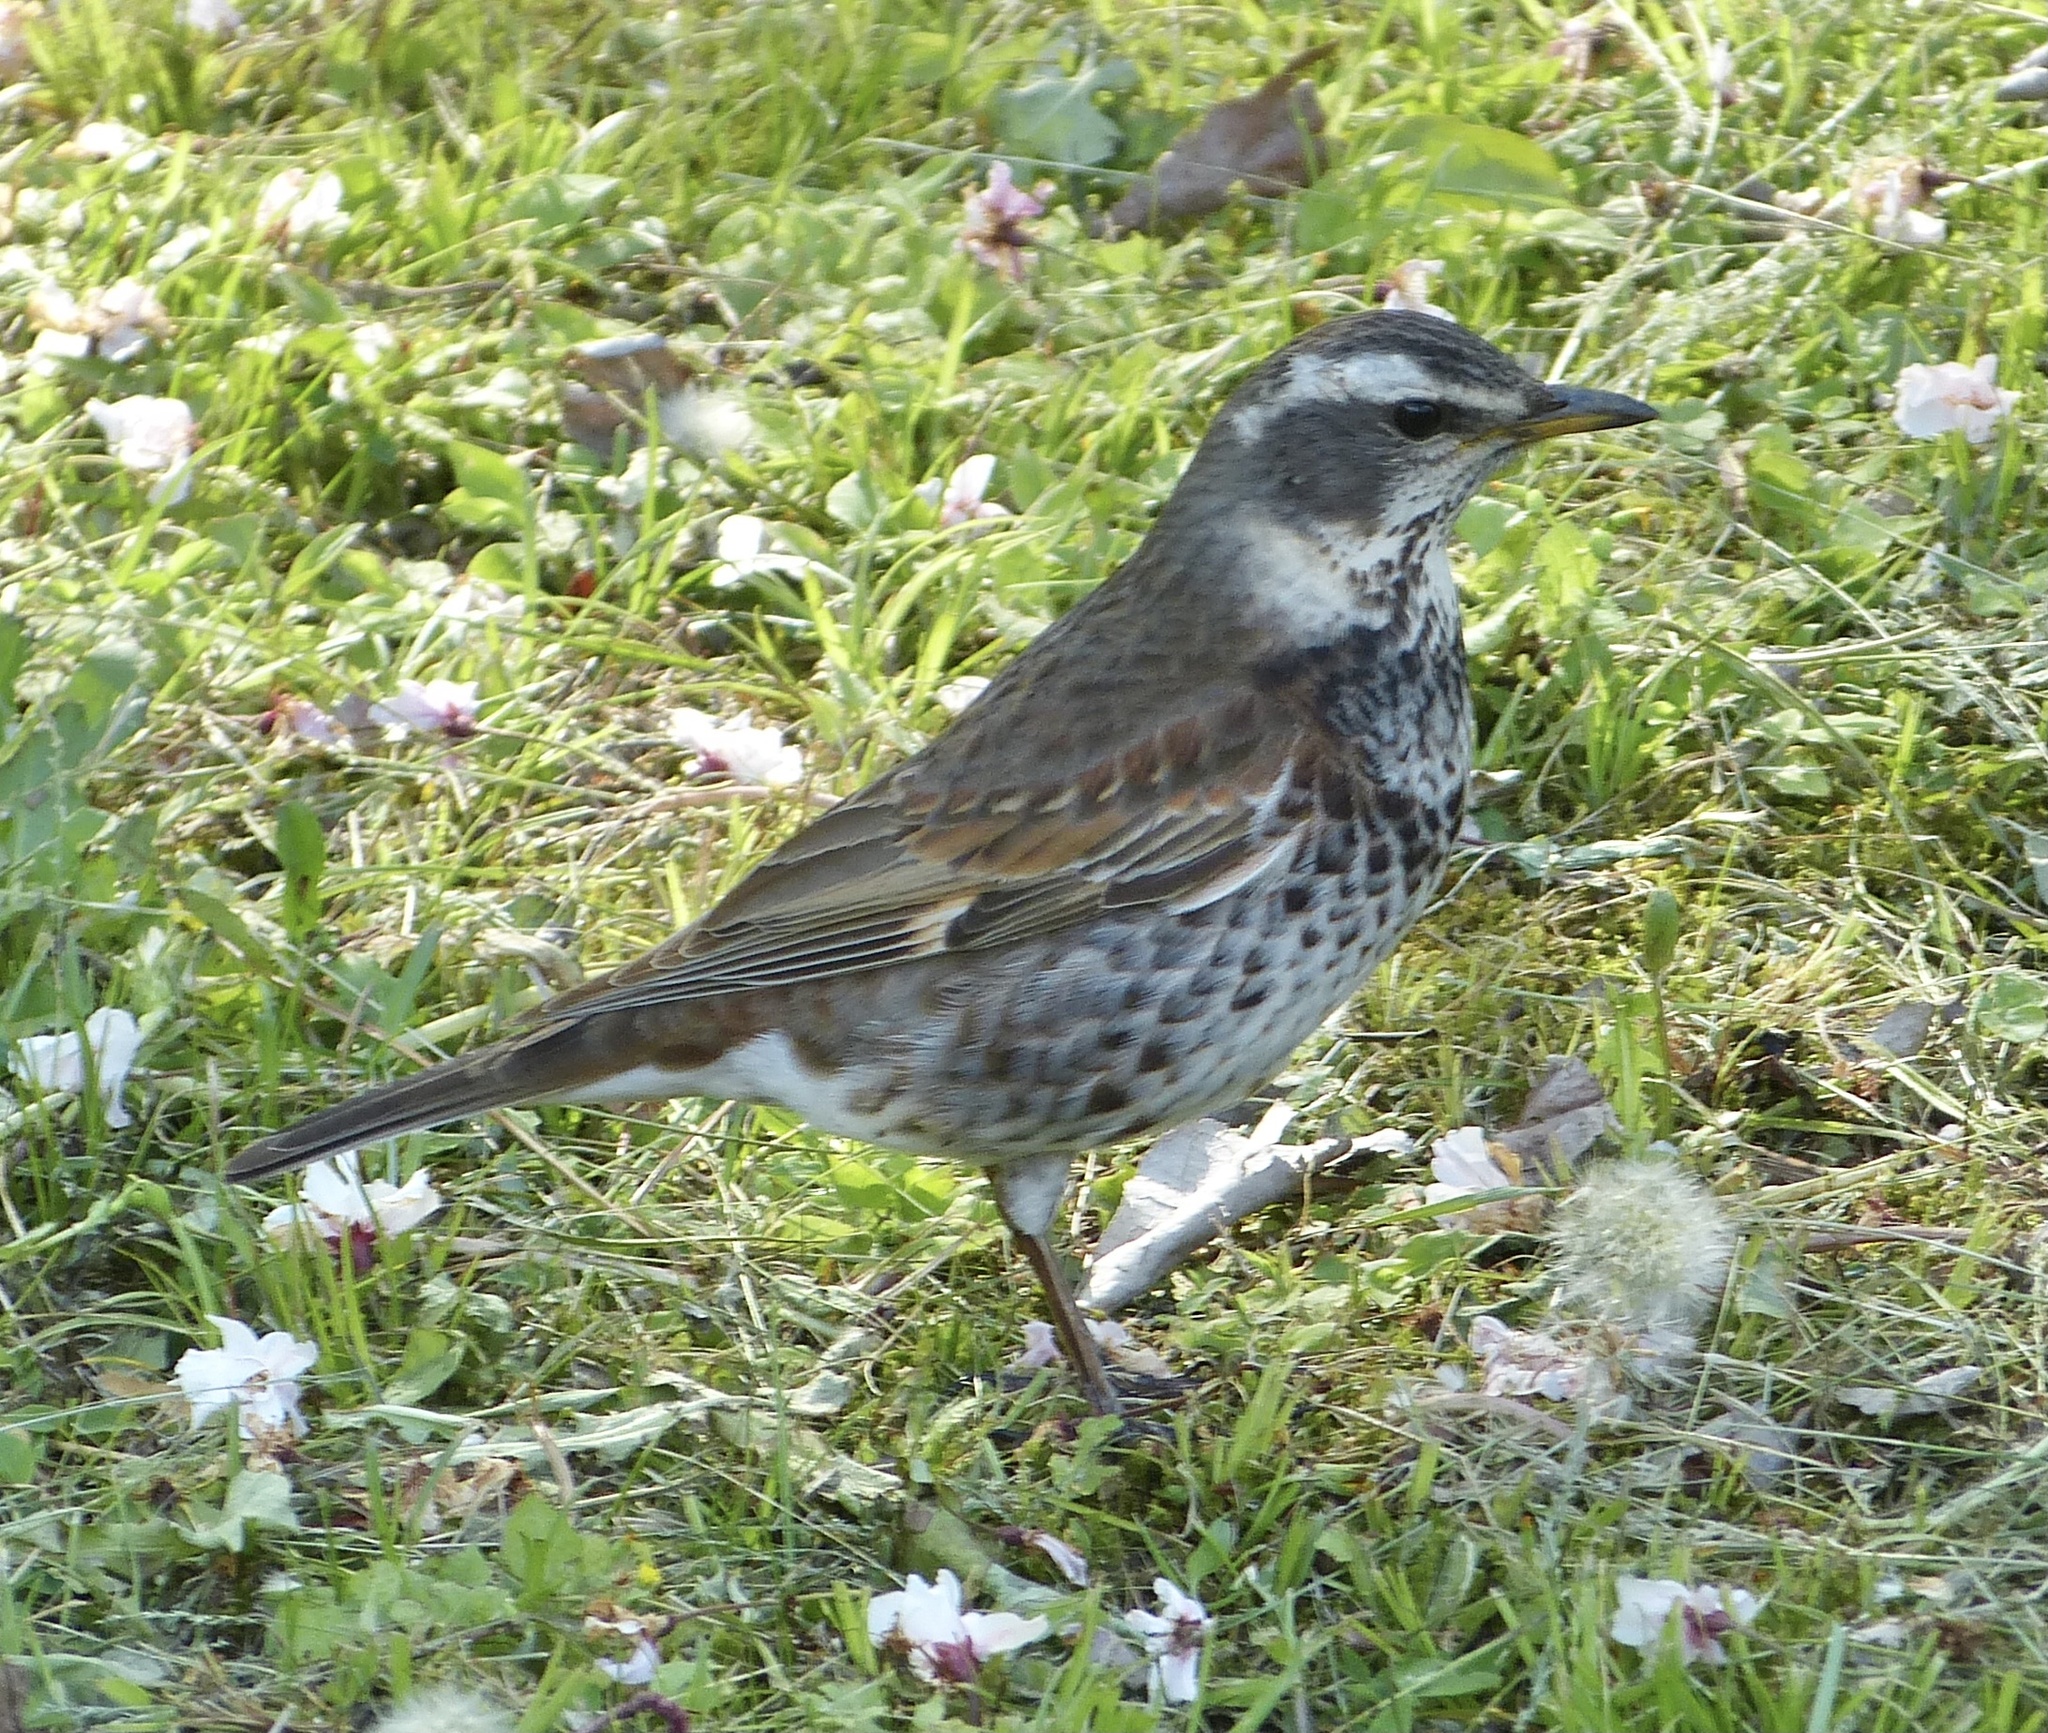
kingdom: Animalia
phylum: Chordata
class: Aves
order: Passeriformes
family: Turdidae
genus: Turdus
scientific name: Turdus eunomus
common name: Dusky thrush
